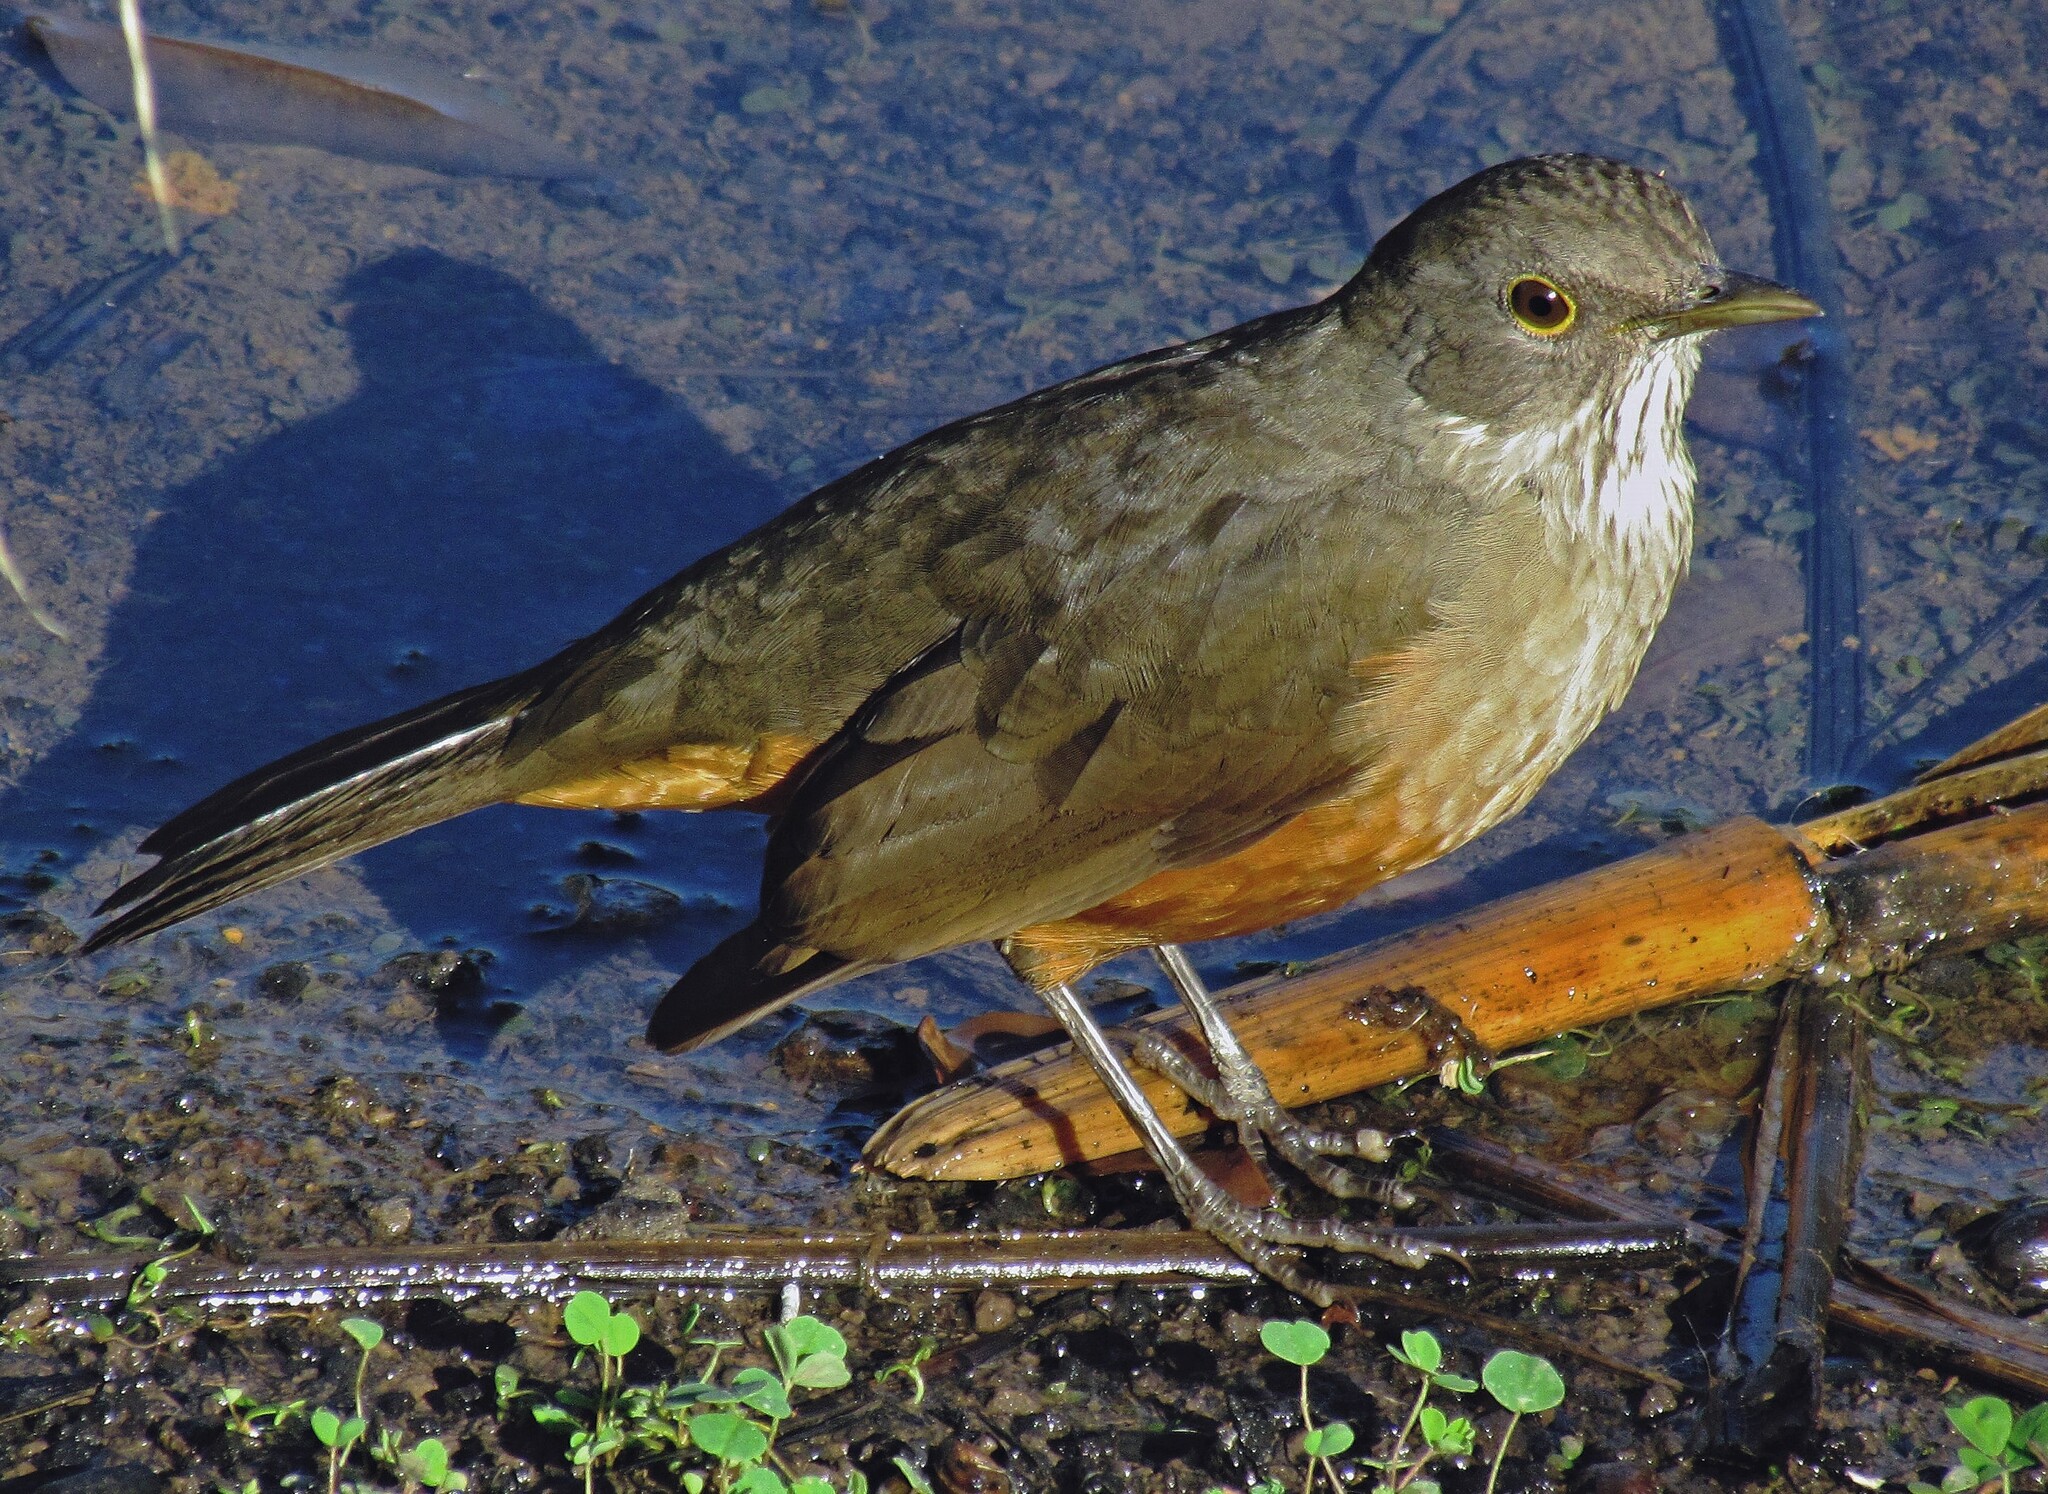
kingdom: Animalia
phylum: Chordata
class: Aves
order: Passeriformes
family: Turdidae
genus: Turdus
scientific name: Turdus rufiventris
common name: Rufous-bellied thrush
